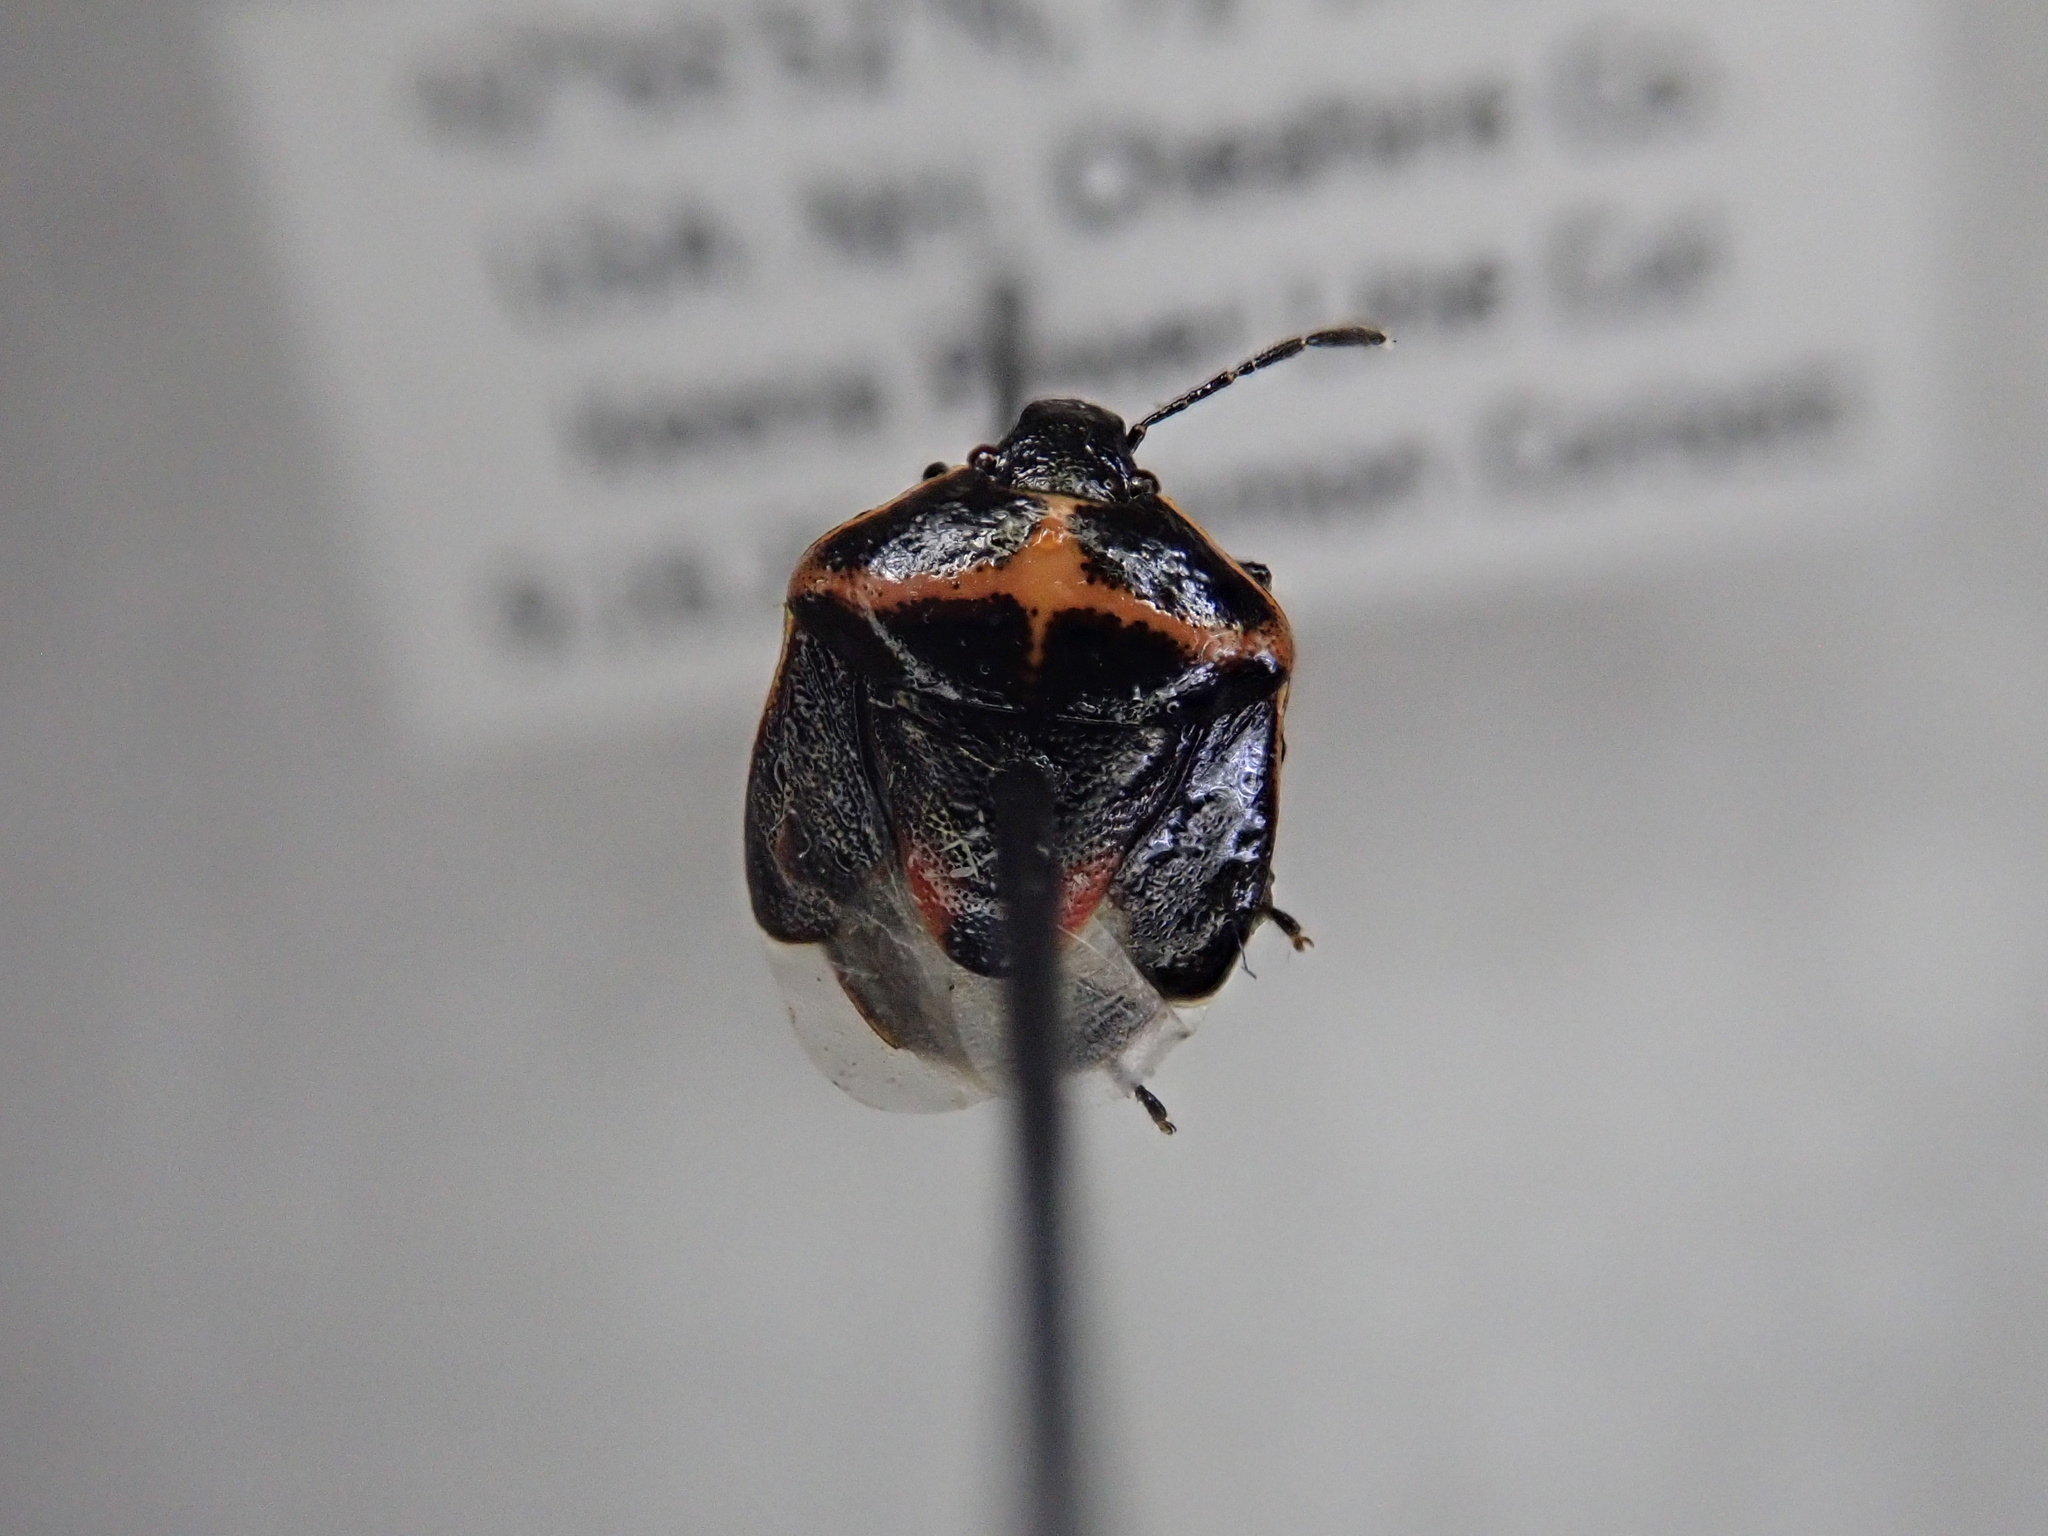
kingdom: Animalia
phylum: Arthropoda
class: Insecta
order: Hemiptera
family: Pentatomidae
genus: Cosmopepla
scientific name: Cosmopepla lintneriana
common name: Twice-stabbed stink bug
